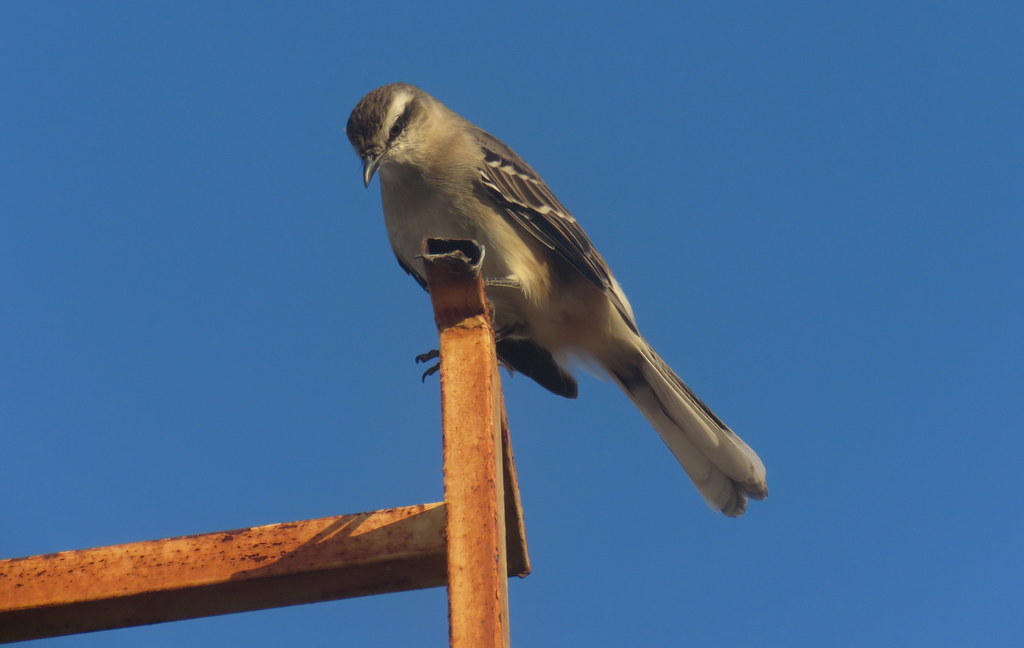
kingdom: Animalia
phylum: Chordata
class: Aves
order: Passeriformes
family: Mimidae
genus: Mimus
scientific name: Mimus saturninus
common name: Chalk-browed mockingbird
